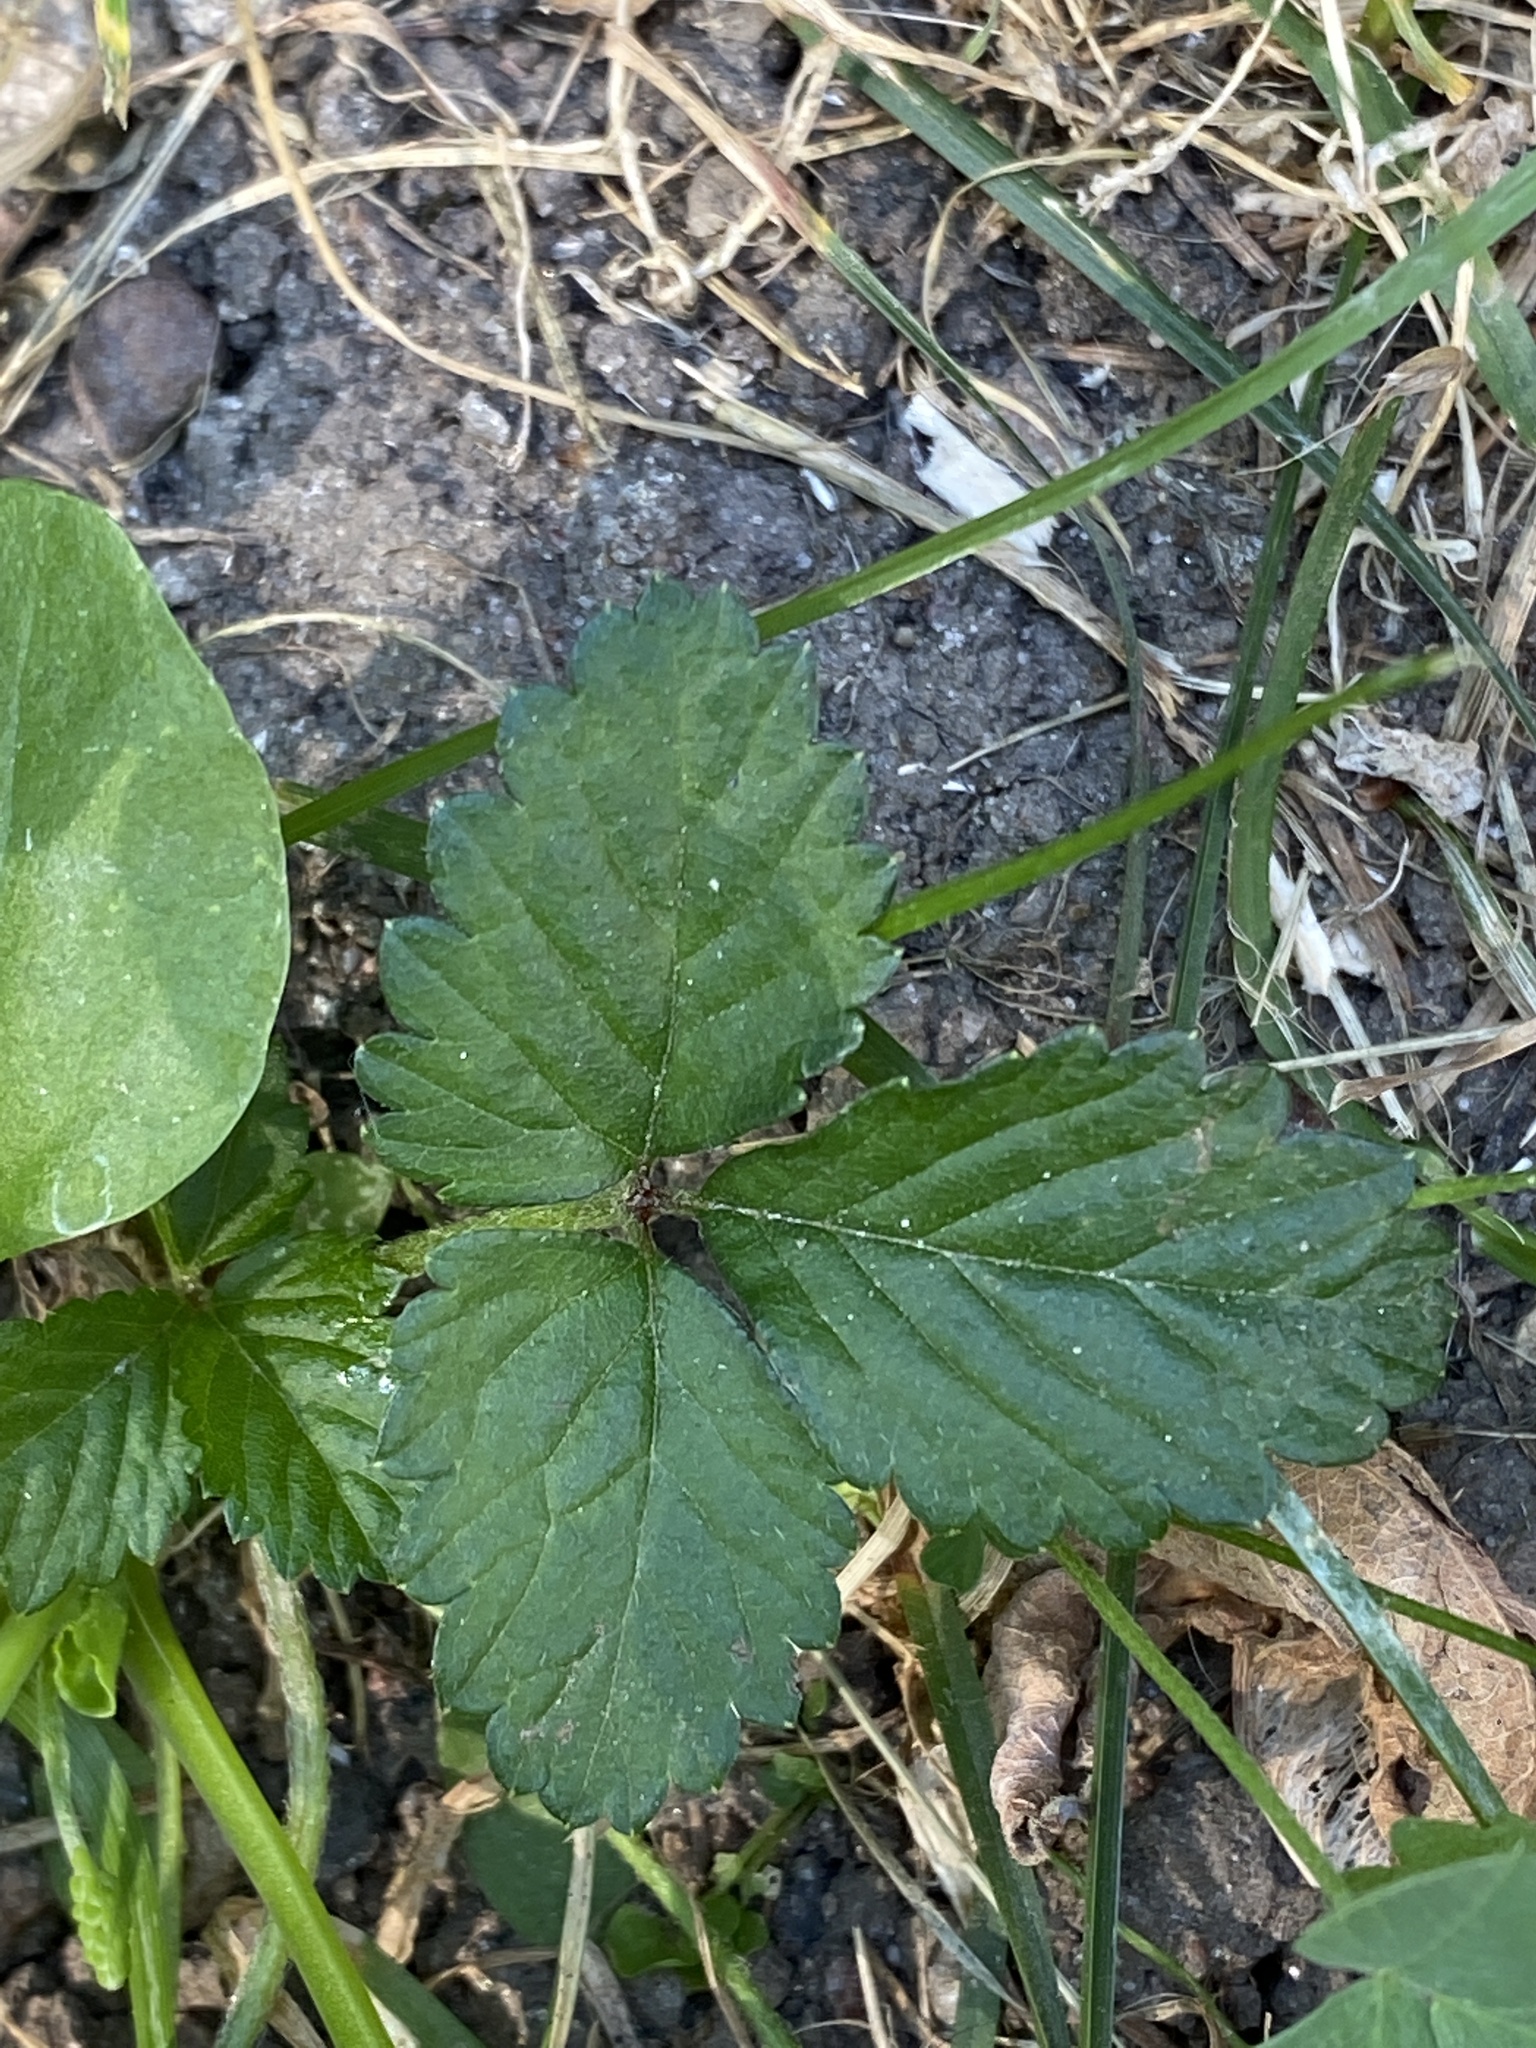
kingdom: Plantae
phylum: Tracheophyta
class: Magnoliopsida
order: Rosales
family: Rosaceae
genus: Potentilla
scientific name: Potentilla indica
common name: Yellow-flowered strawberry
